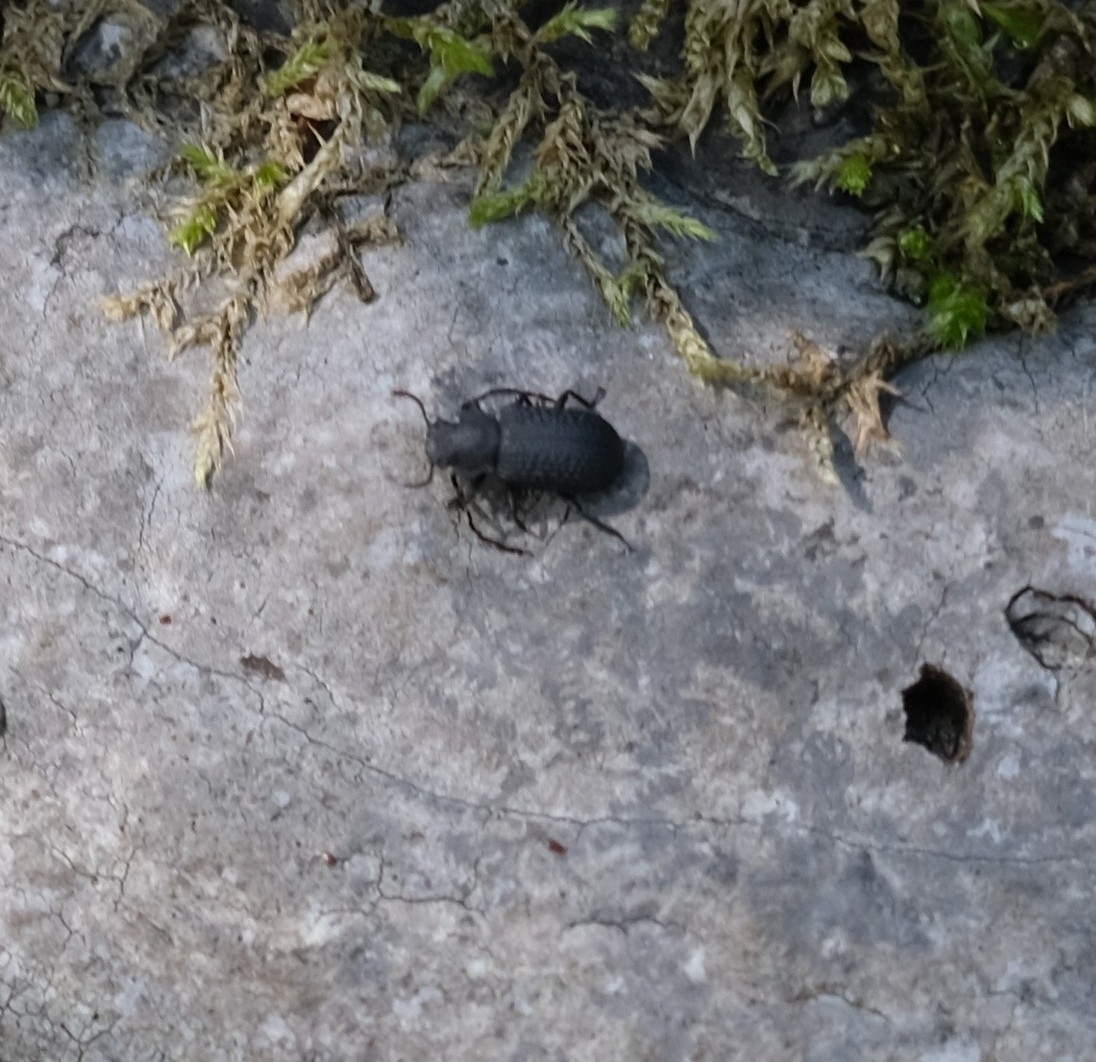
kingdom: Animalia
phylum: Arthropoda
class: Insecta
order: Coleoptera
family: Tenebrionidae
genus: Bolitophagus
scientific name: Bolitophagus reticulatus
